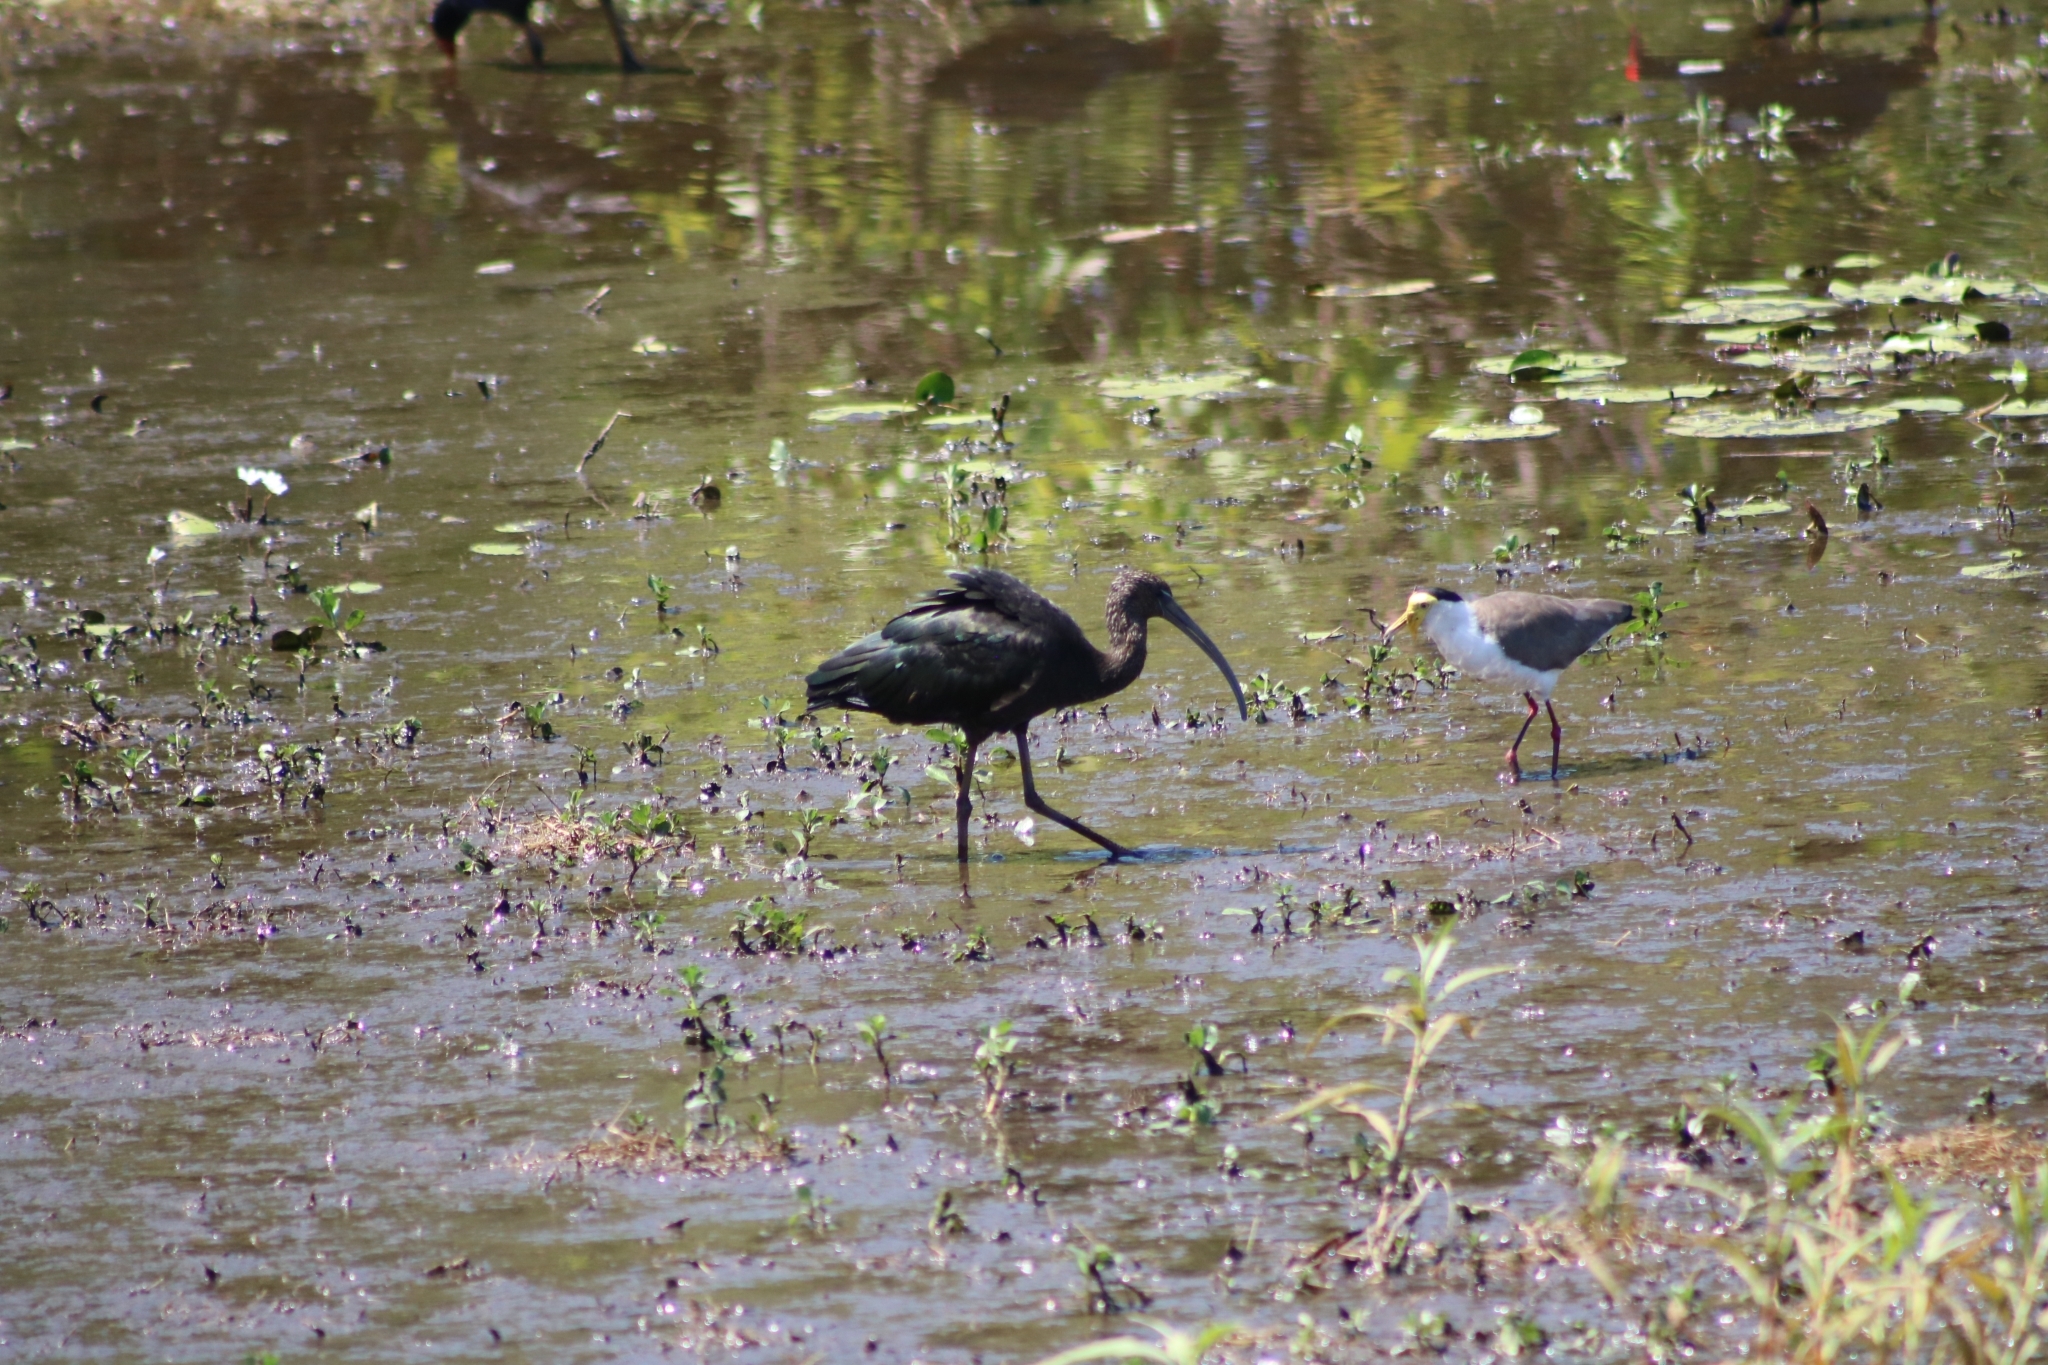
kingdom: Animalia
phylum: Chordata
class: Aves
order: Pelecaniformes
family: Threskiornithidae
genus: Plegadis
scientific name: Plegadis falcinellus
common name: Glossy ibis
